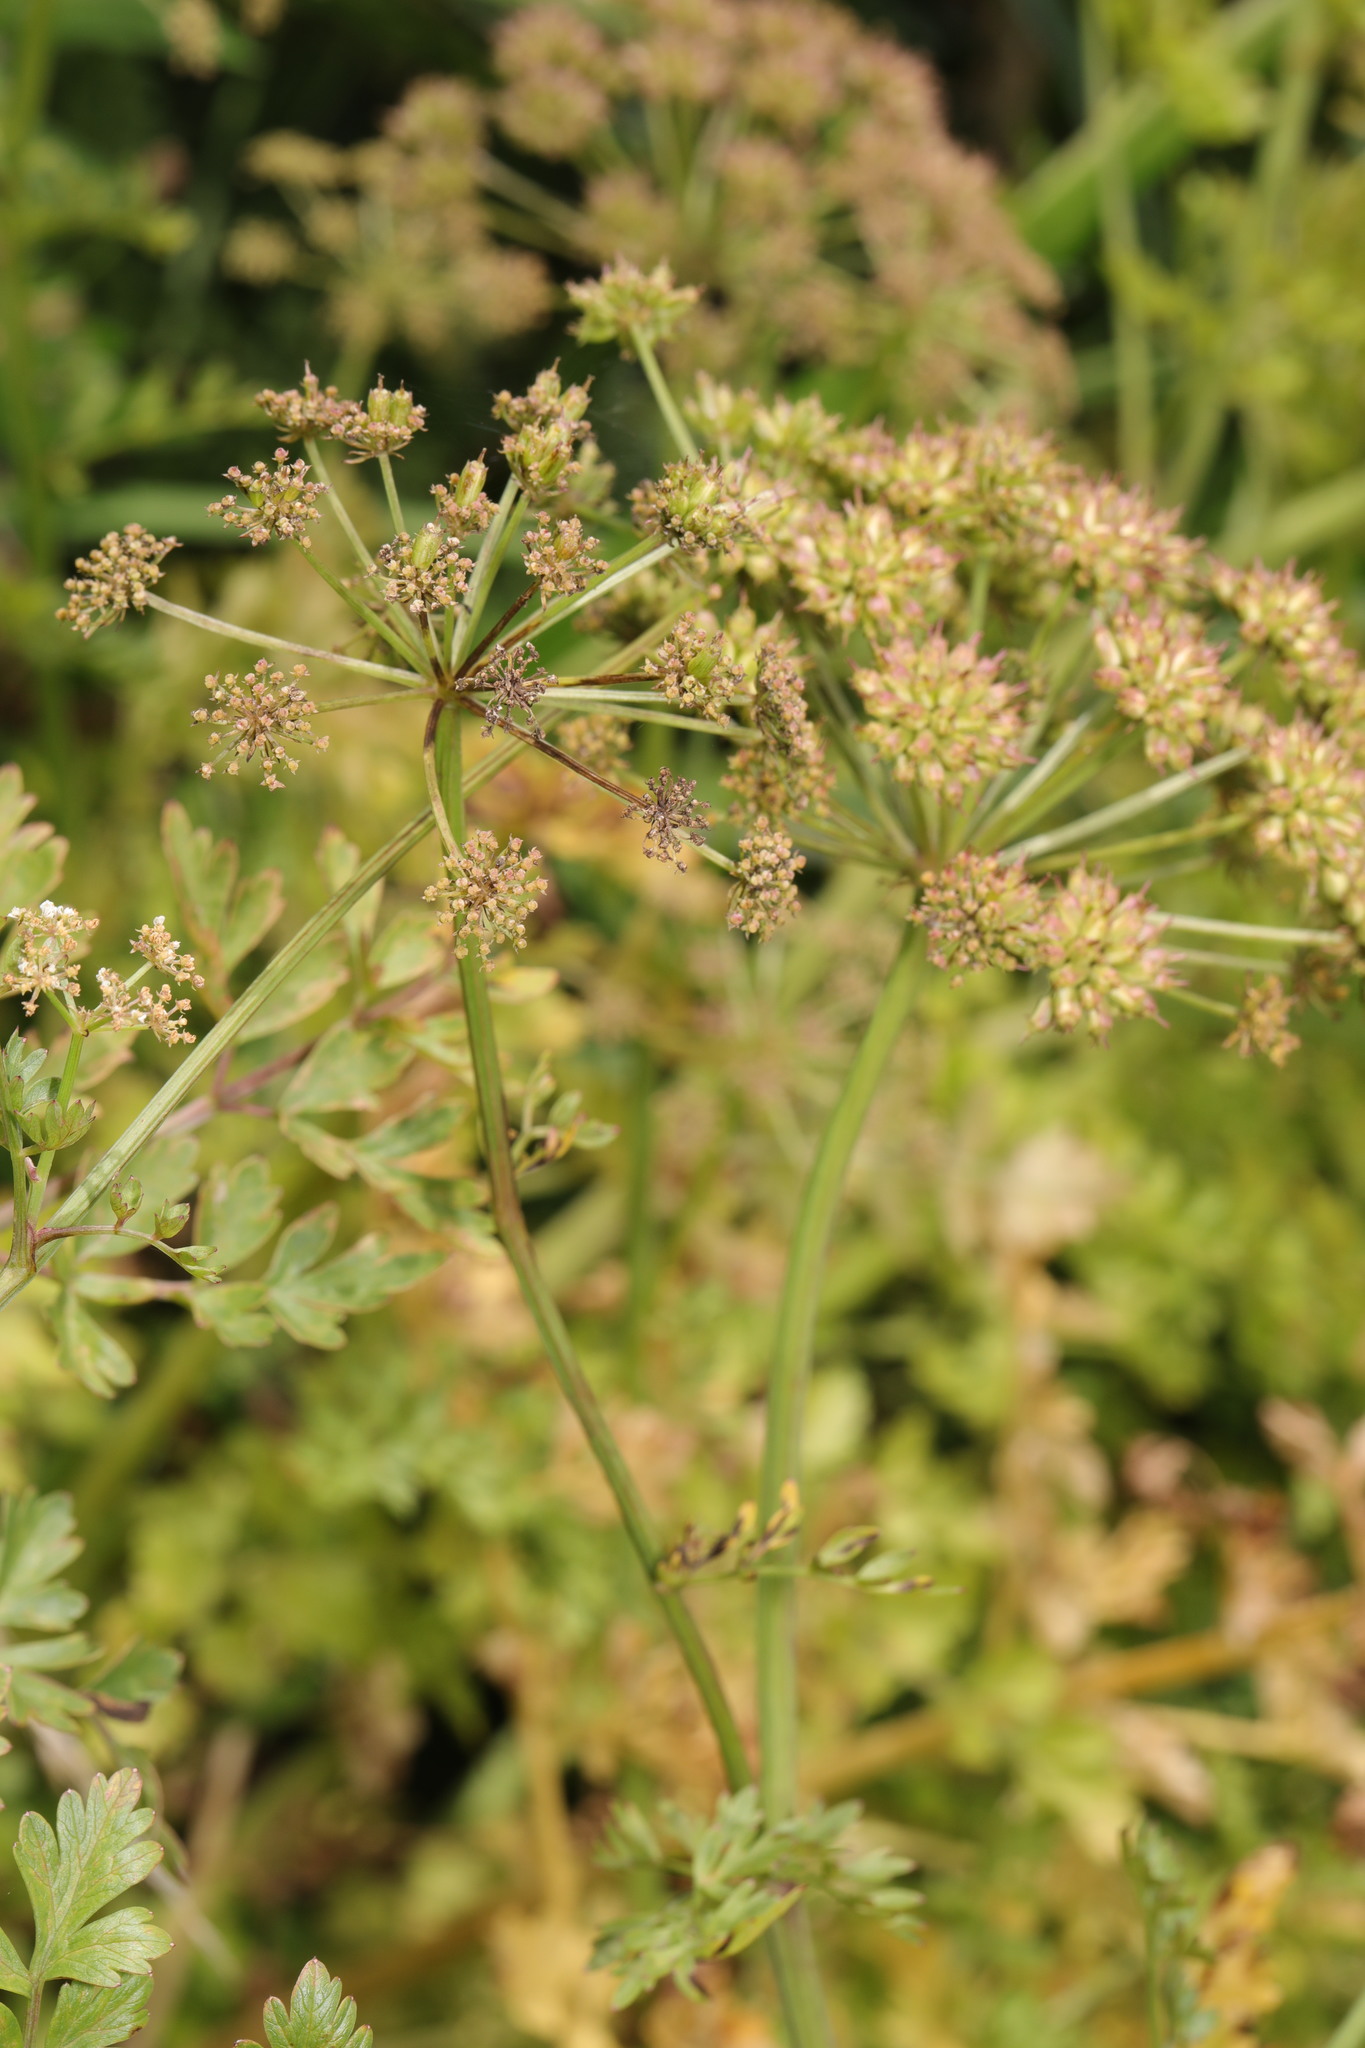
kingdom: Plantae
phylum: Tracheophyta
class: Magnoliopsida
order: Apiales
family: Apiaceae
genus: Oenanthe
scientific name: Oenanthe crocata
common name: Hemlock water-dropwort
